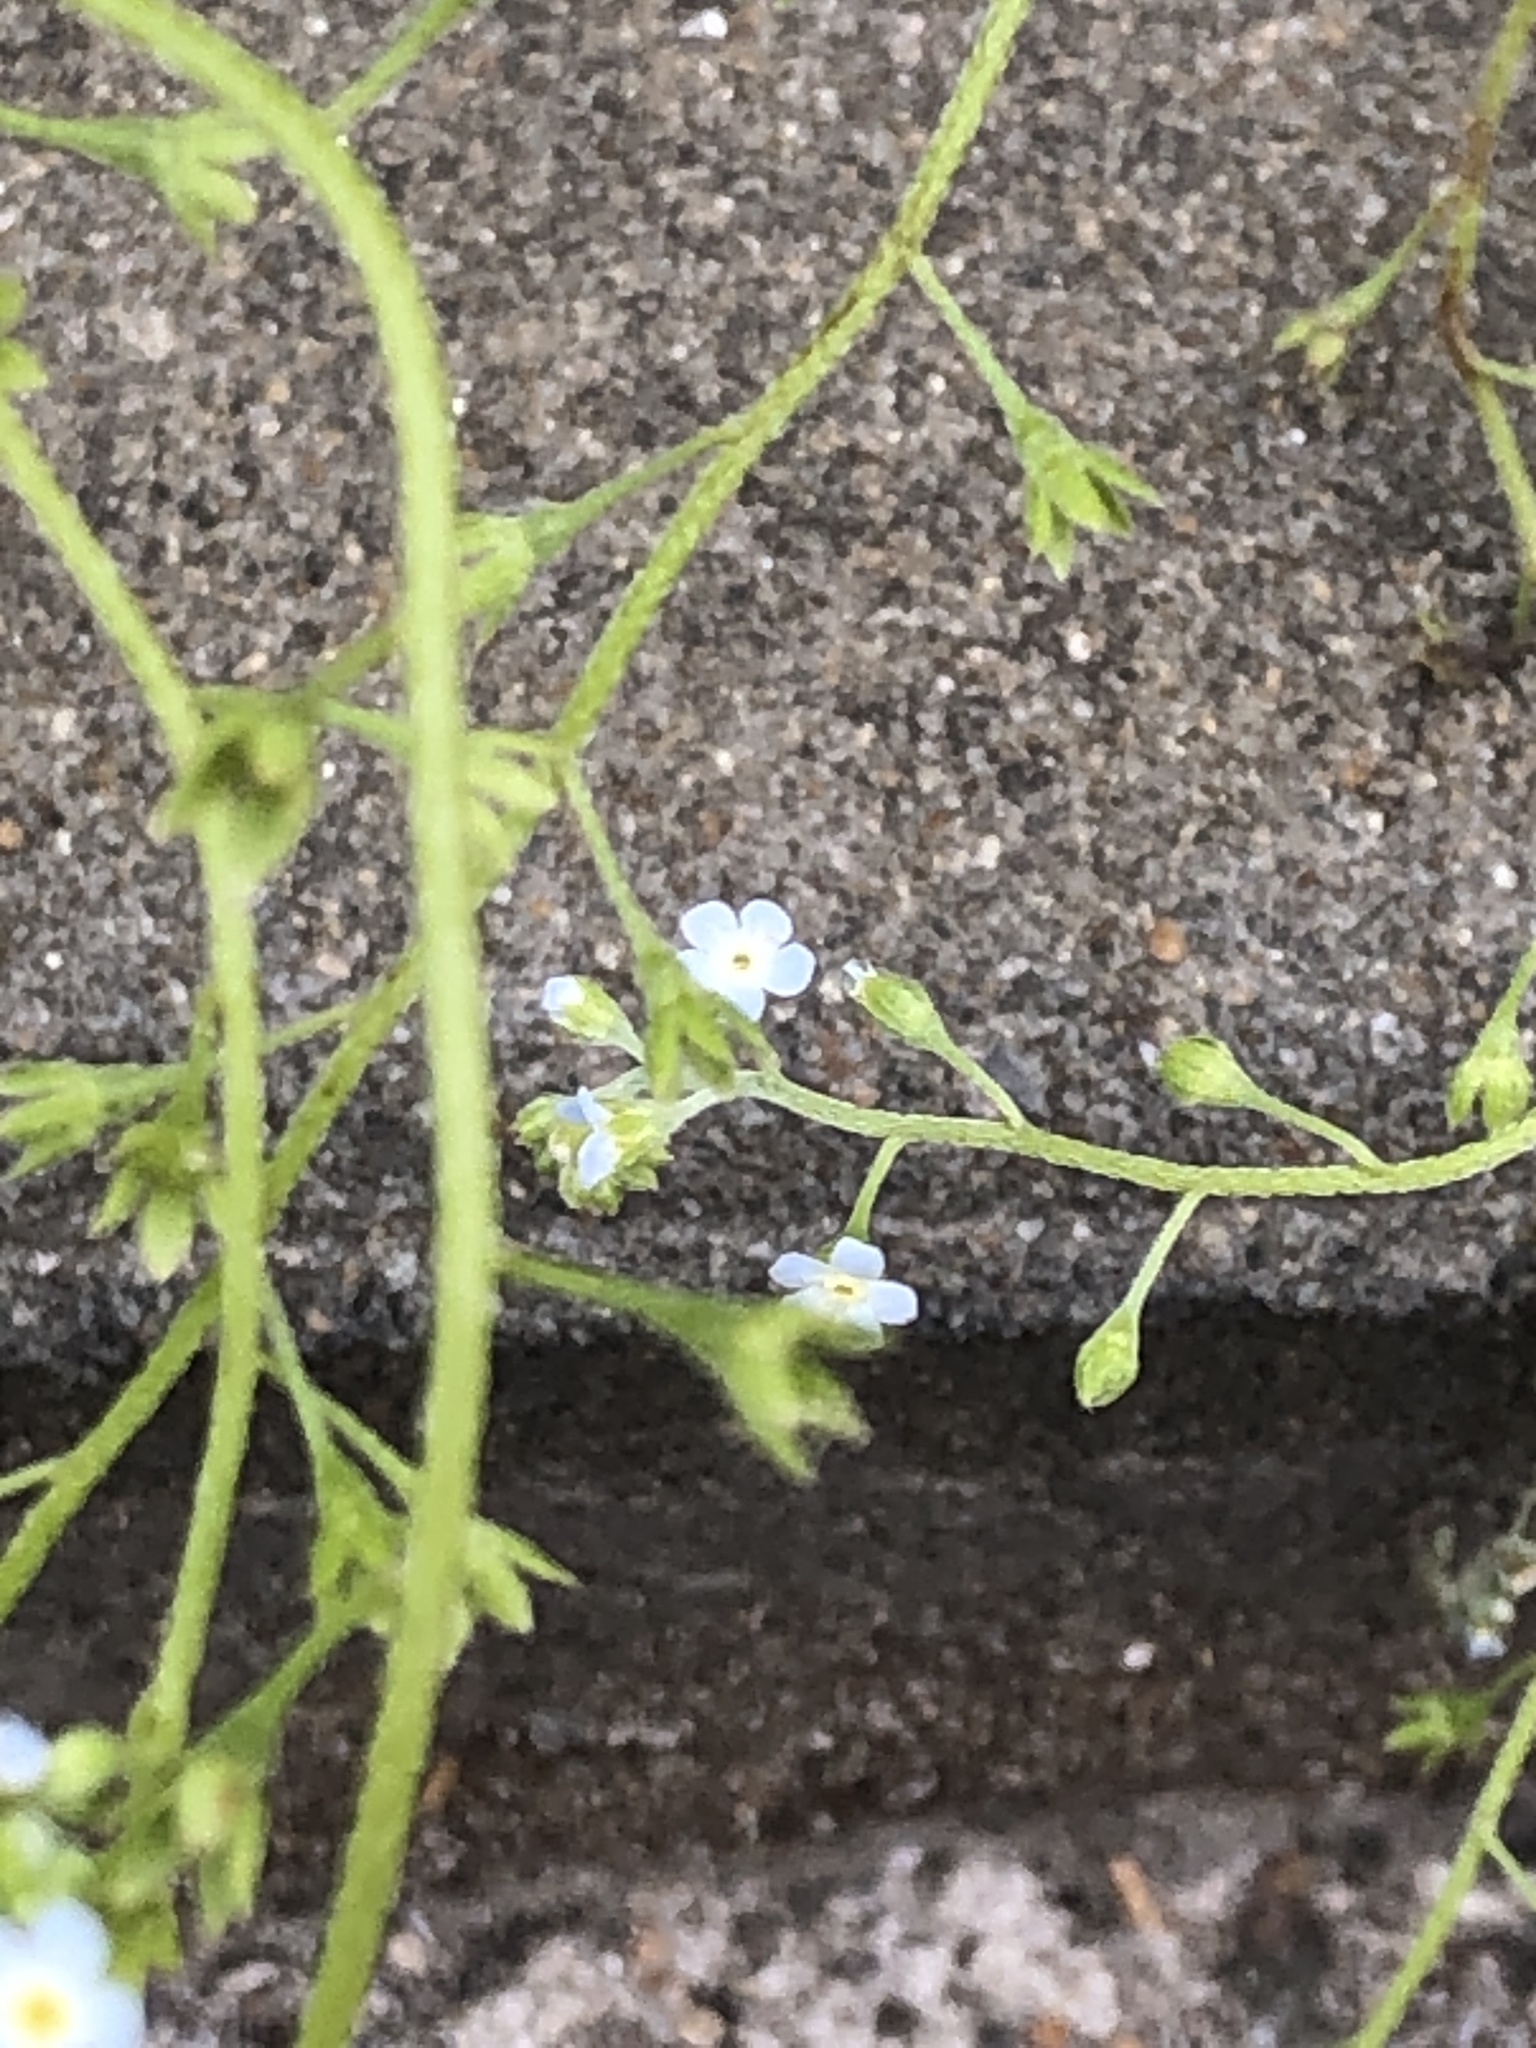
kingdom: Plantae
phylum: Tracheophyta
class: Magnoliopsida
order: Boraginales
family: Boraginaceae
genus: Trigonotis
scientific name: Trigonotis peduncularis
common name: Cucumber herb
